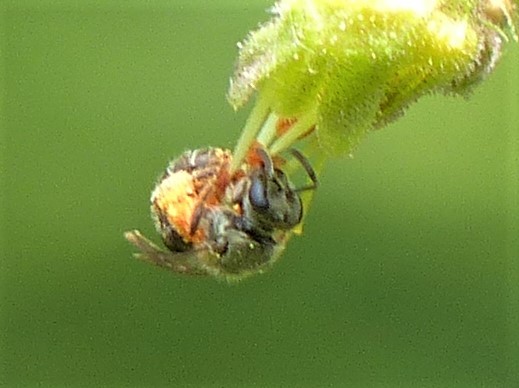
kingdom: Animalia
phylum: Arthropoda
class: Insecta
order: Hymenoptera
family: Halictidae
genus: Dialictus
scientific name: Dialictus
